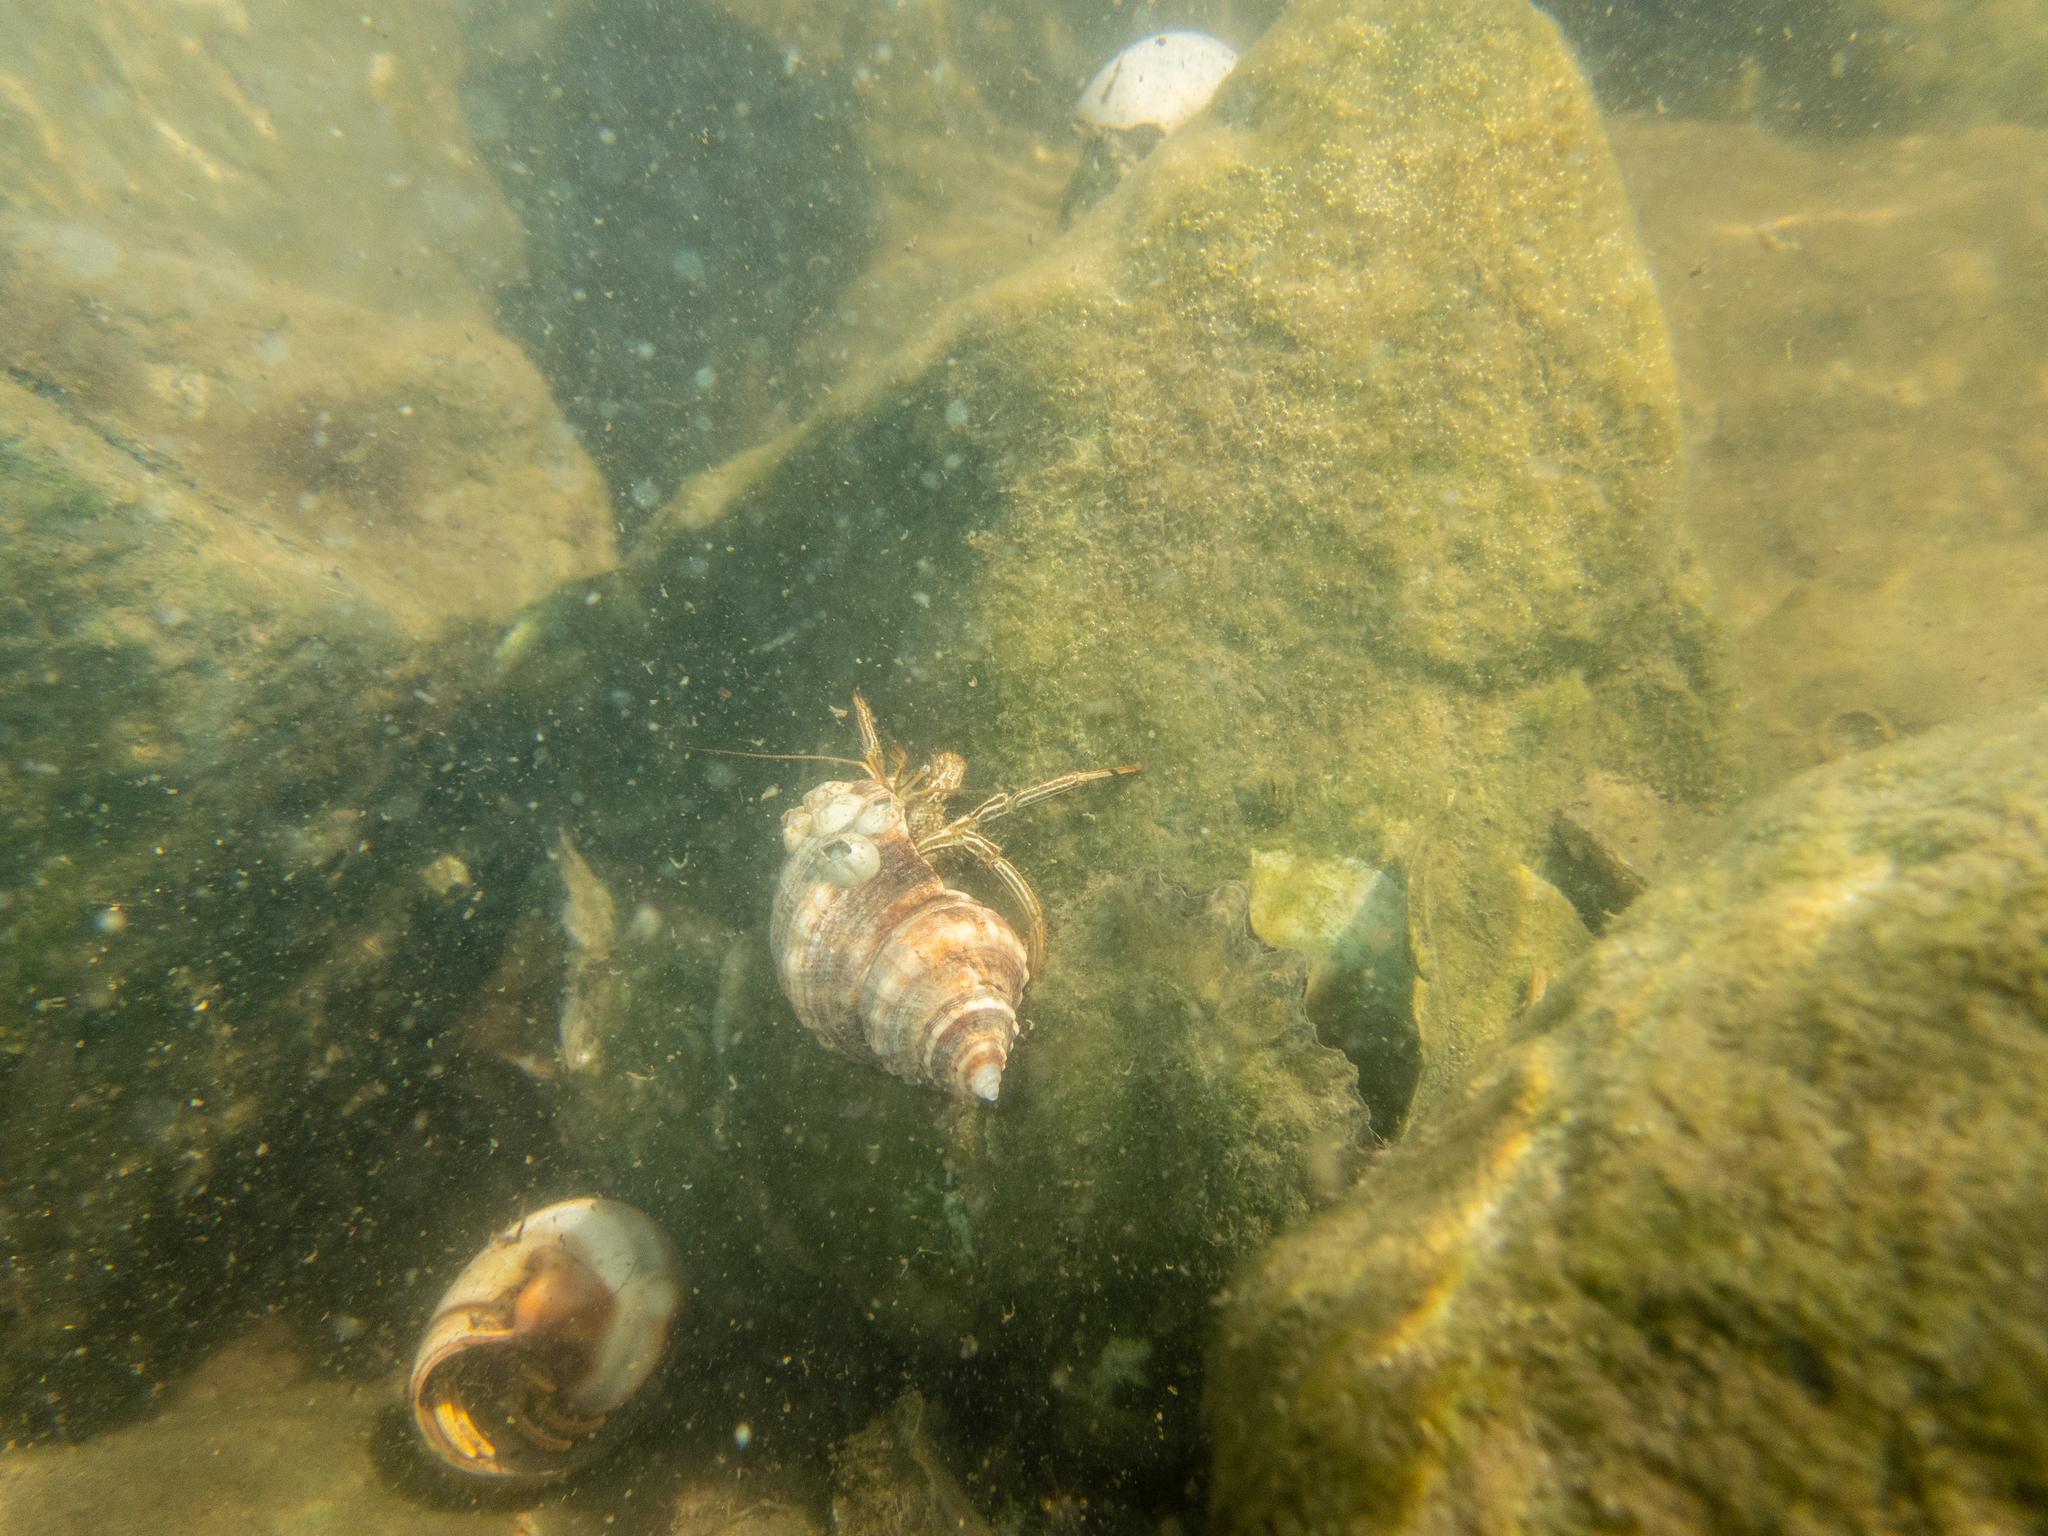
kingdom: Animalia
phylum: Arthropoda
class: Malacostraca
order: Decapoda
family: Diogenidae
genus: Clibanarius
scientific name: Clibanarius vittatus
